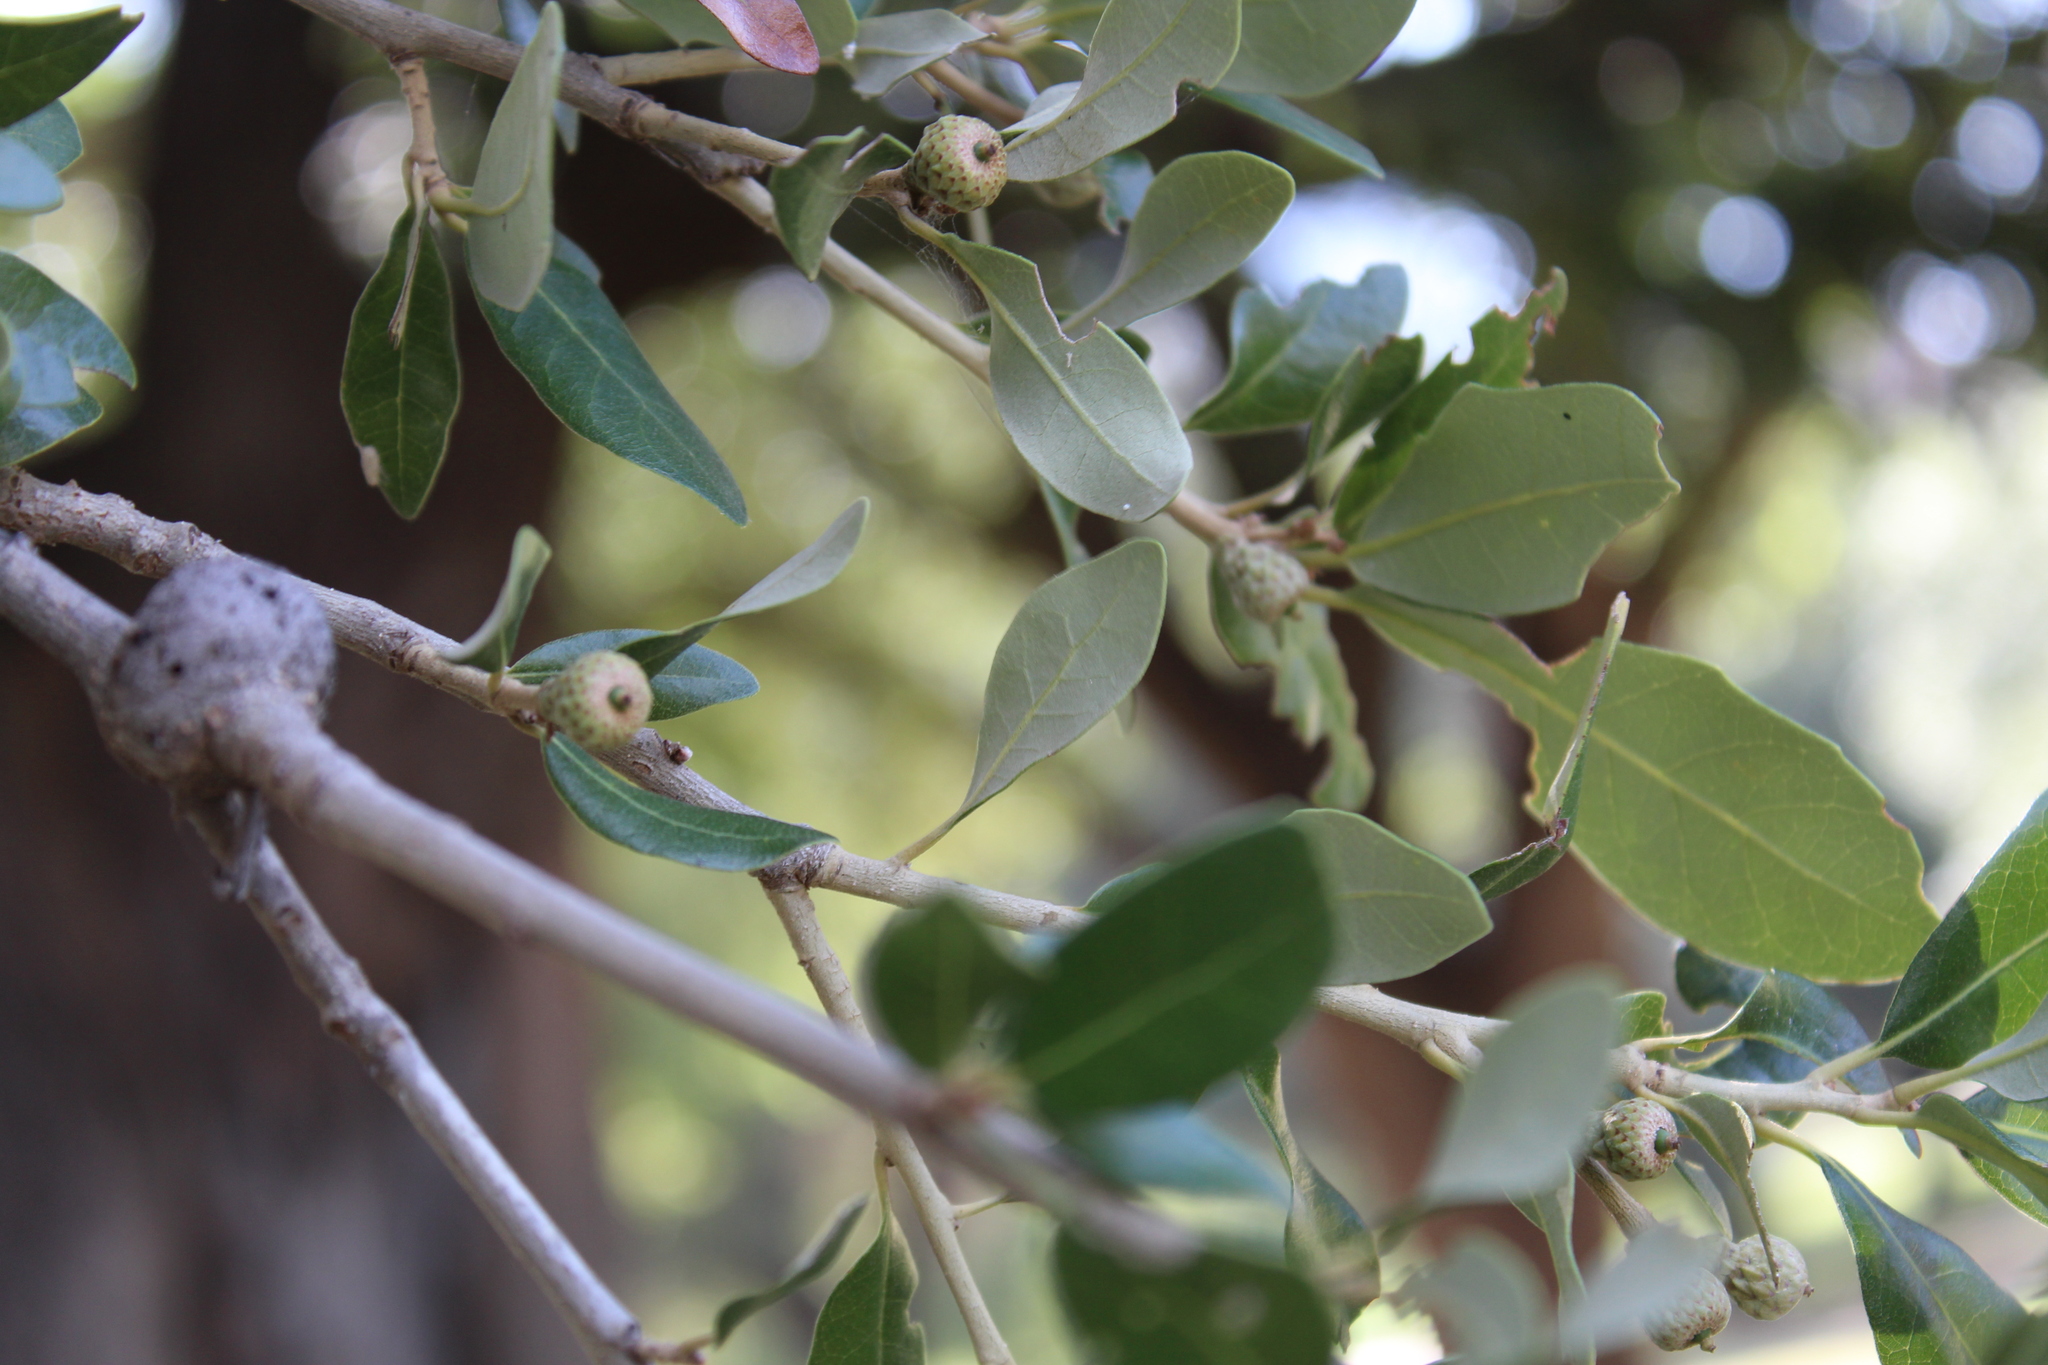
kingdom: Animalia
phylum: Arthropoda
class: Insecta
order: Hymenoptera
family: Cynipidae
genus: Callirhytis
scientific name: Callirhytis
